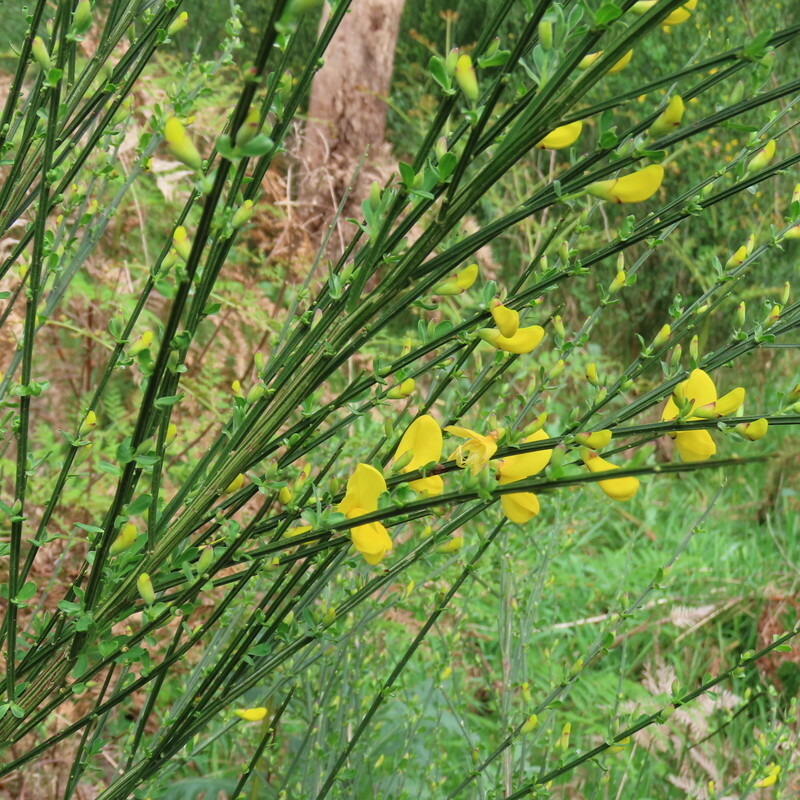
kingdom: Plantae
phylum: Tracheophyta
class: Magnoliopsida
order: Fabales
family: Fabaceae
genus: Cytisus
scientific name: Cytisus scoparius
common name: Scotch broom
